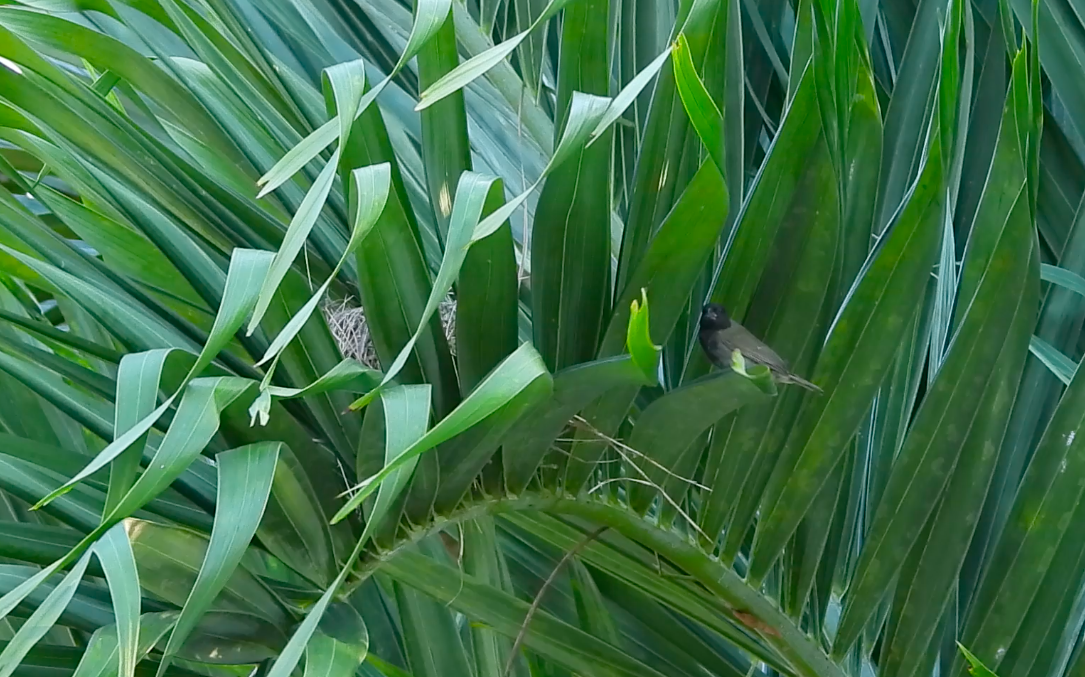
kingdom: Animalia
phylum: Chordata
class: Aves
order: Passeriformes
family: Thraupidae
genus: Melanospiza
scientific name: Melanospiza bicolor
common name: Black-faced grassquit
